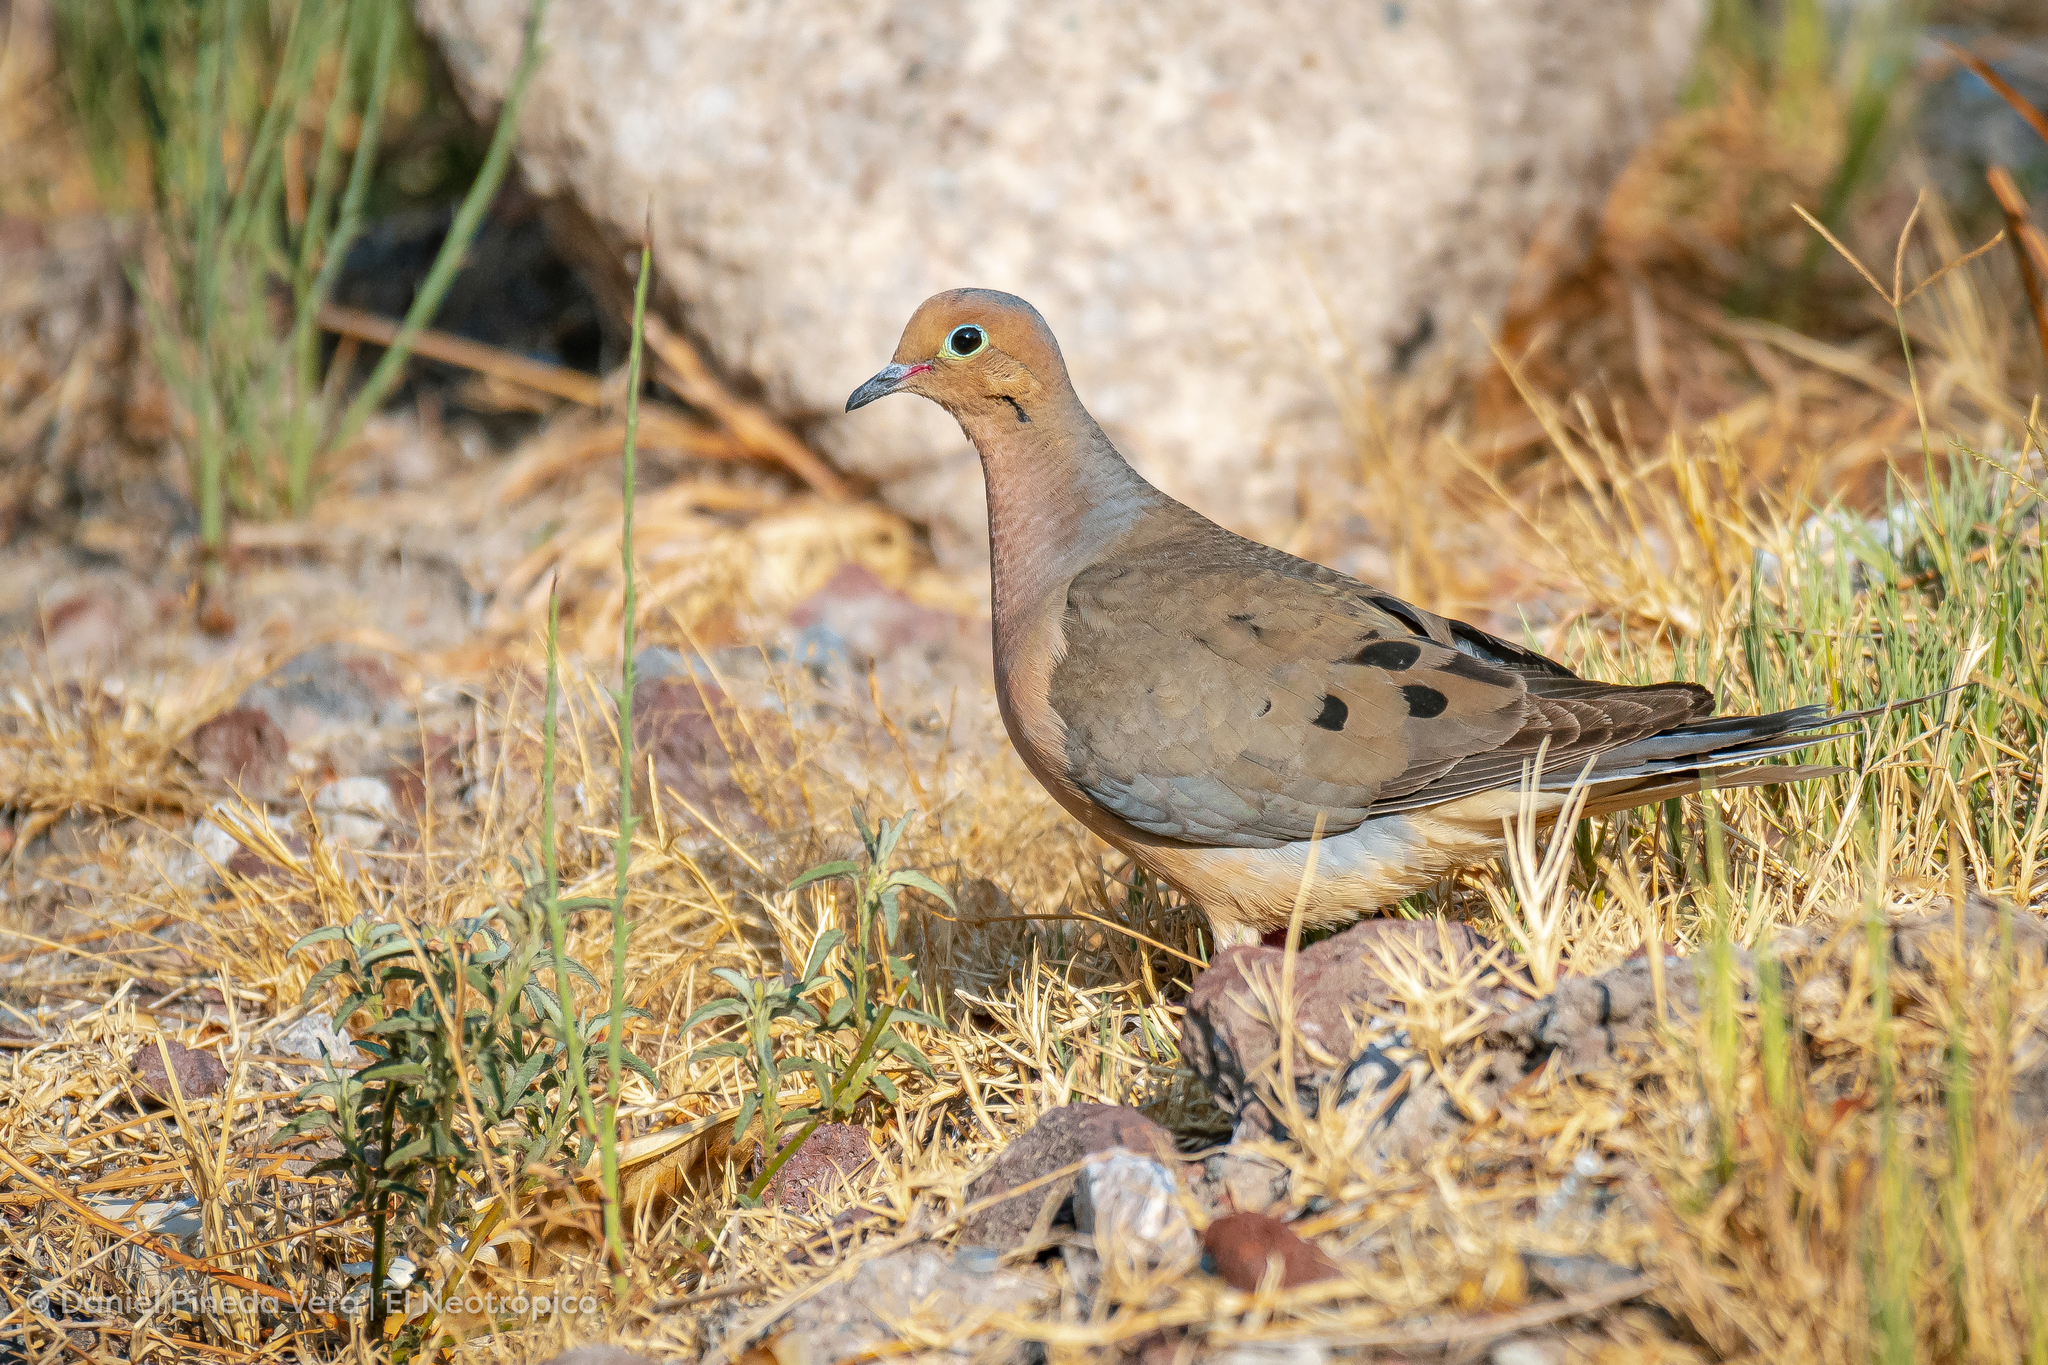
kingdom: Animalia
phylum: Chordata
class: Aves
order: Columbiformes
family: Columbidae
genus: Zenaida
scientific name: Zenaida macroura
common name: Mourning dove
